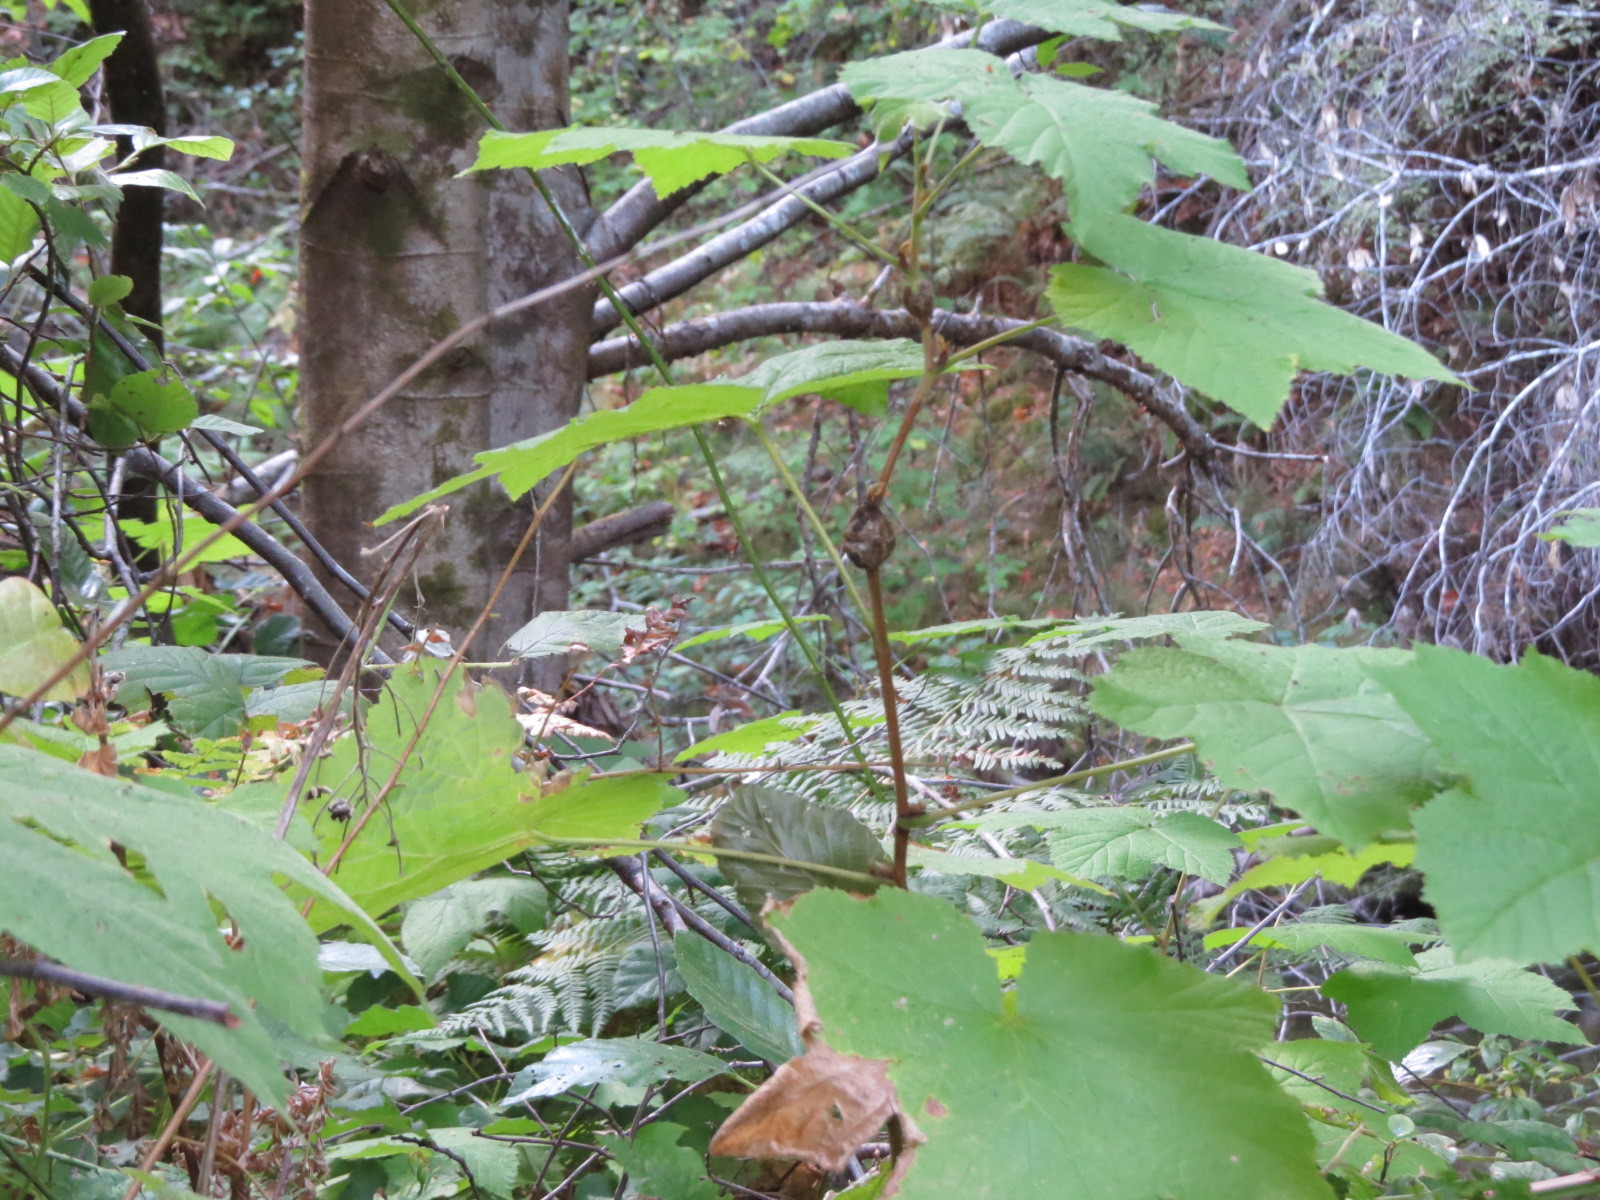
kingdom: Animalia
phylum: Arthropoda
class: Insecta
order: Hymenoptera
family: Cynipidae
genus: Diastrophus
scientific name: Diastrophus
